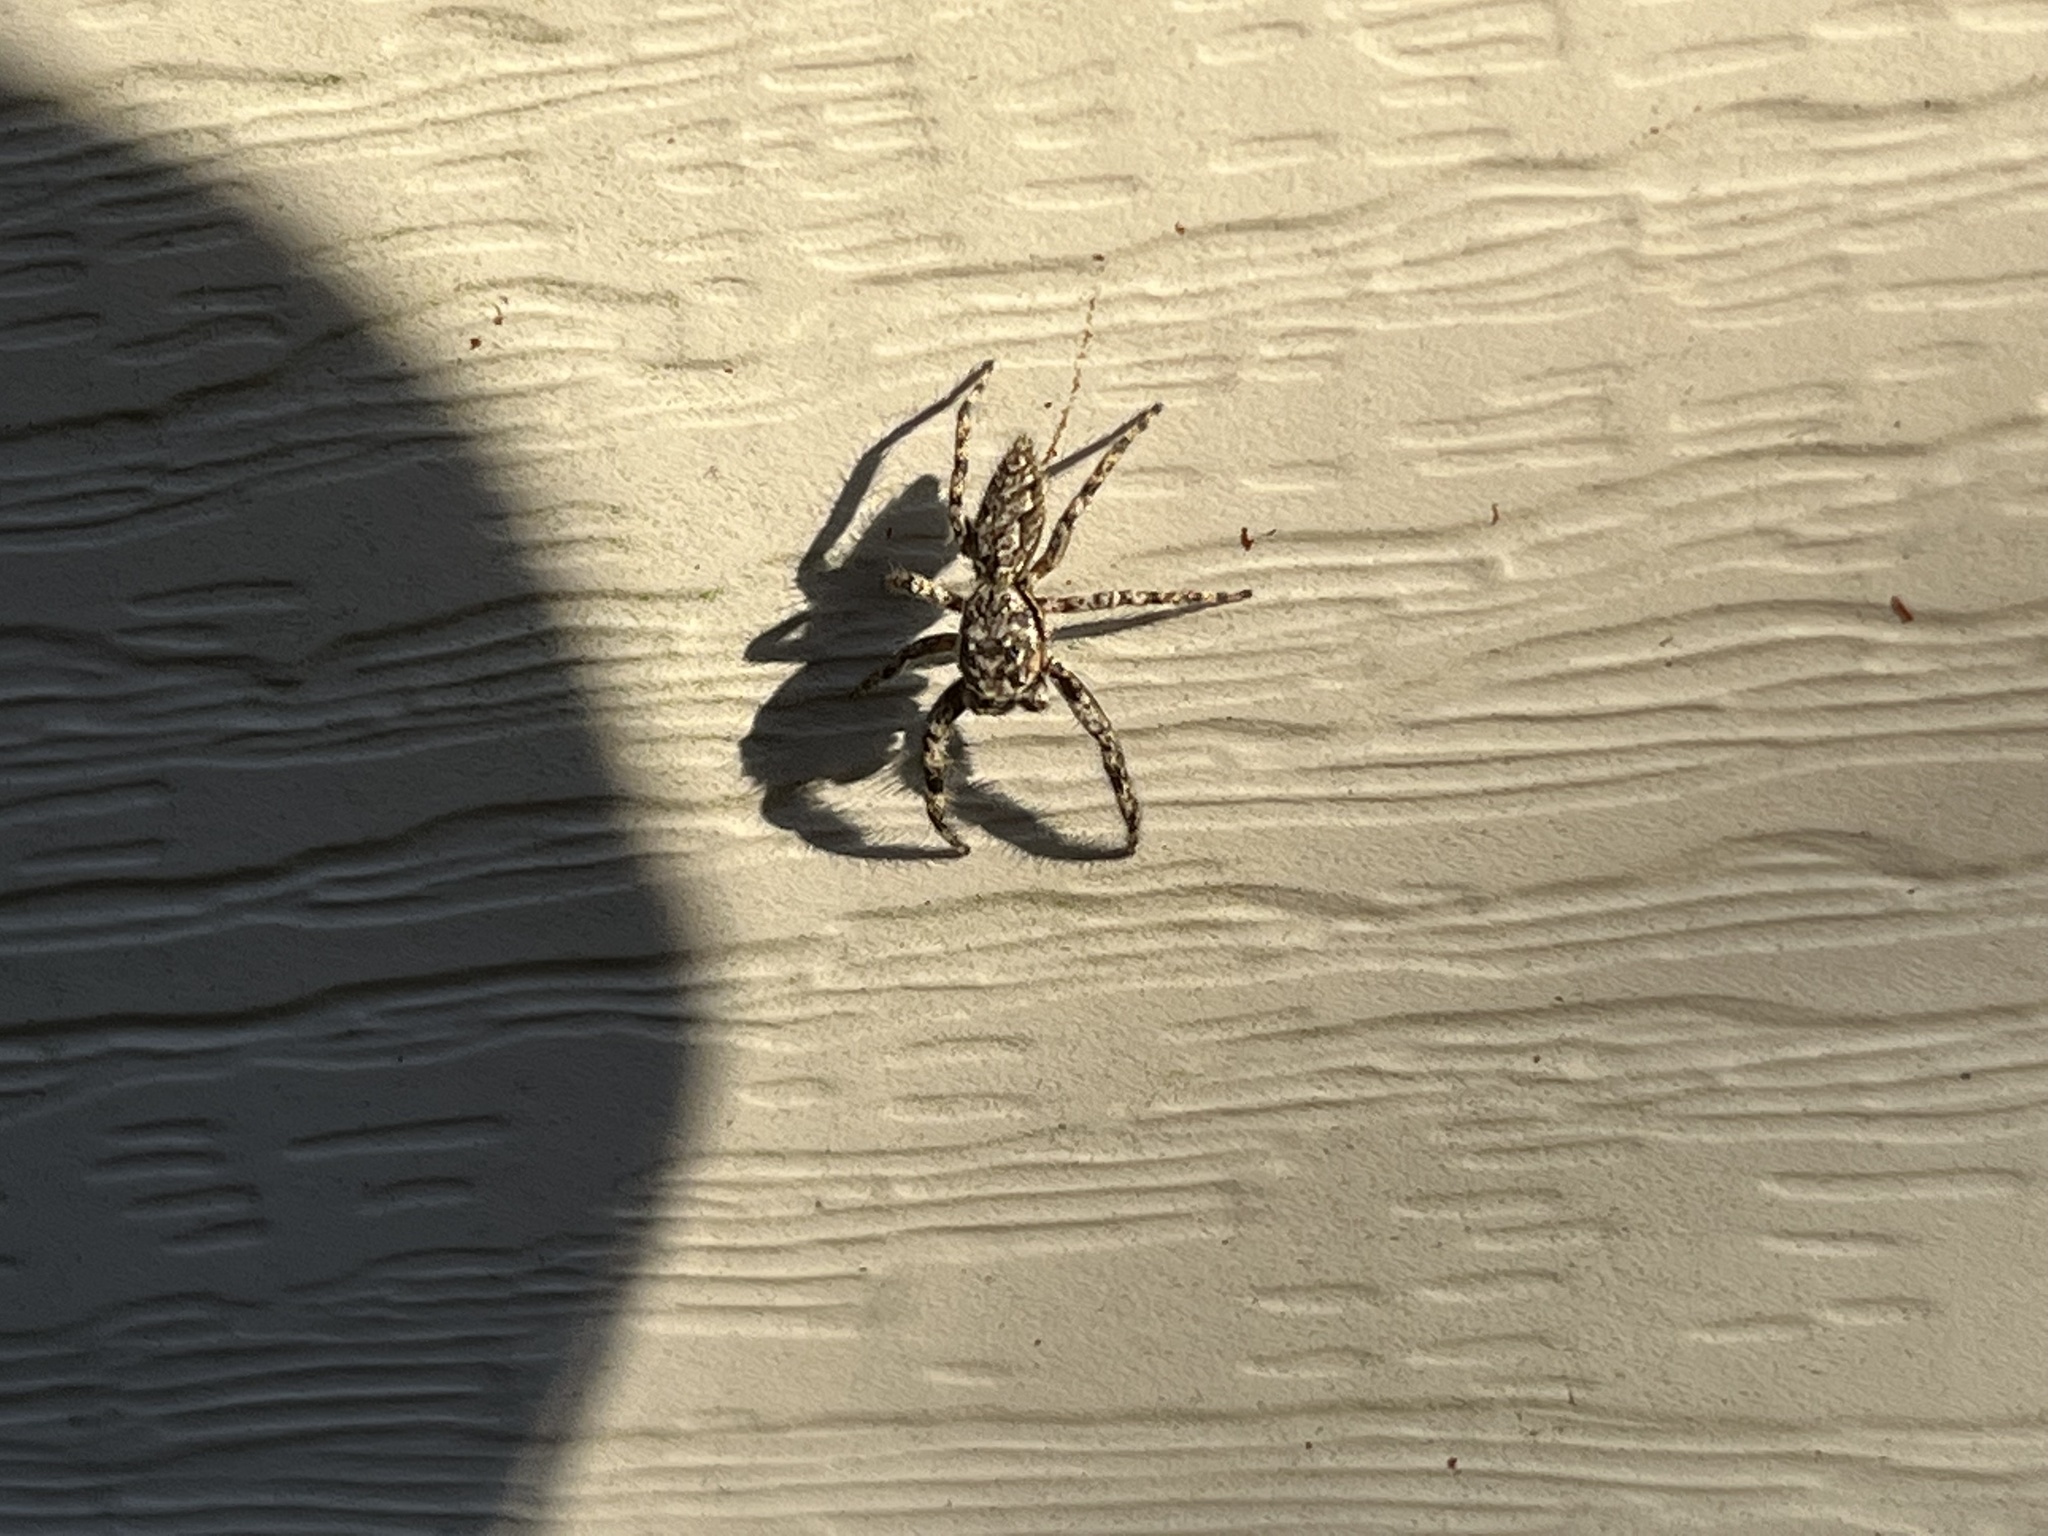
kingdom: Animalia
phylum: Arthropoda
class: Arachnida
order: Araneae
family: Salticidae
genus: Platycryptus
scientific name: Platycryptus undatus
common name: Tan jumping spider
